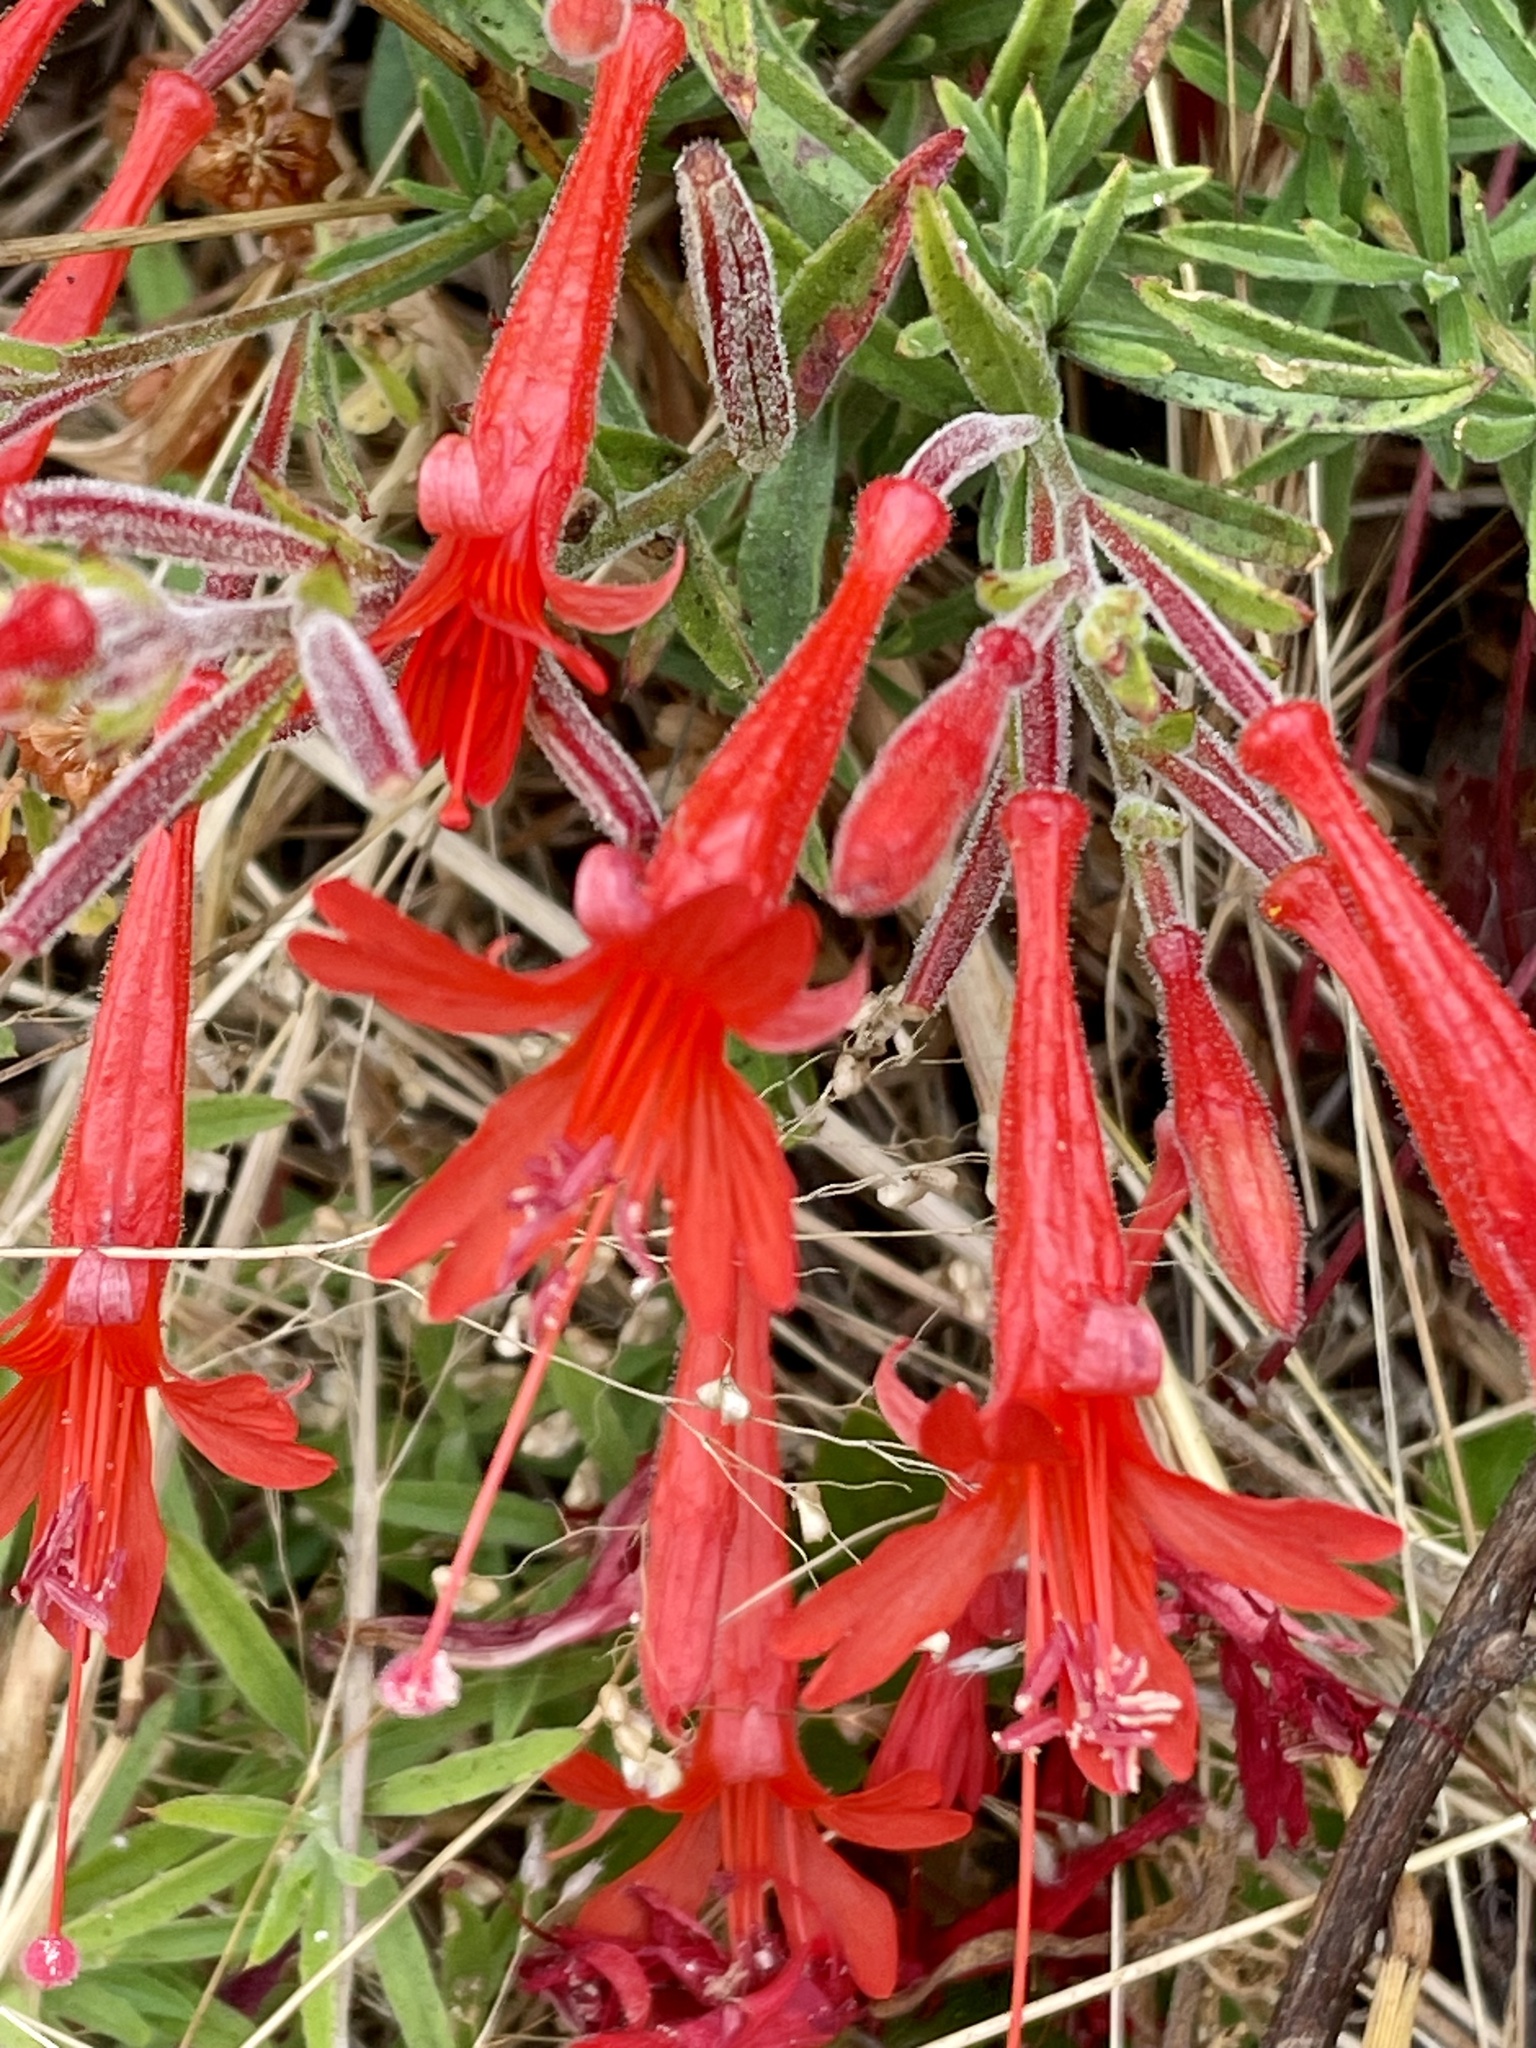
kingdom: Plantae
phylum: Tracheophyta
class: Magnoliopsida
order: Myrtales
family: Onagraceae
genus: Epilobium
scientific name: Epilobium canum
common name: California-fuchsia
